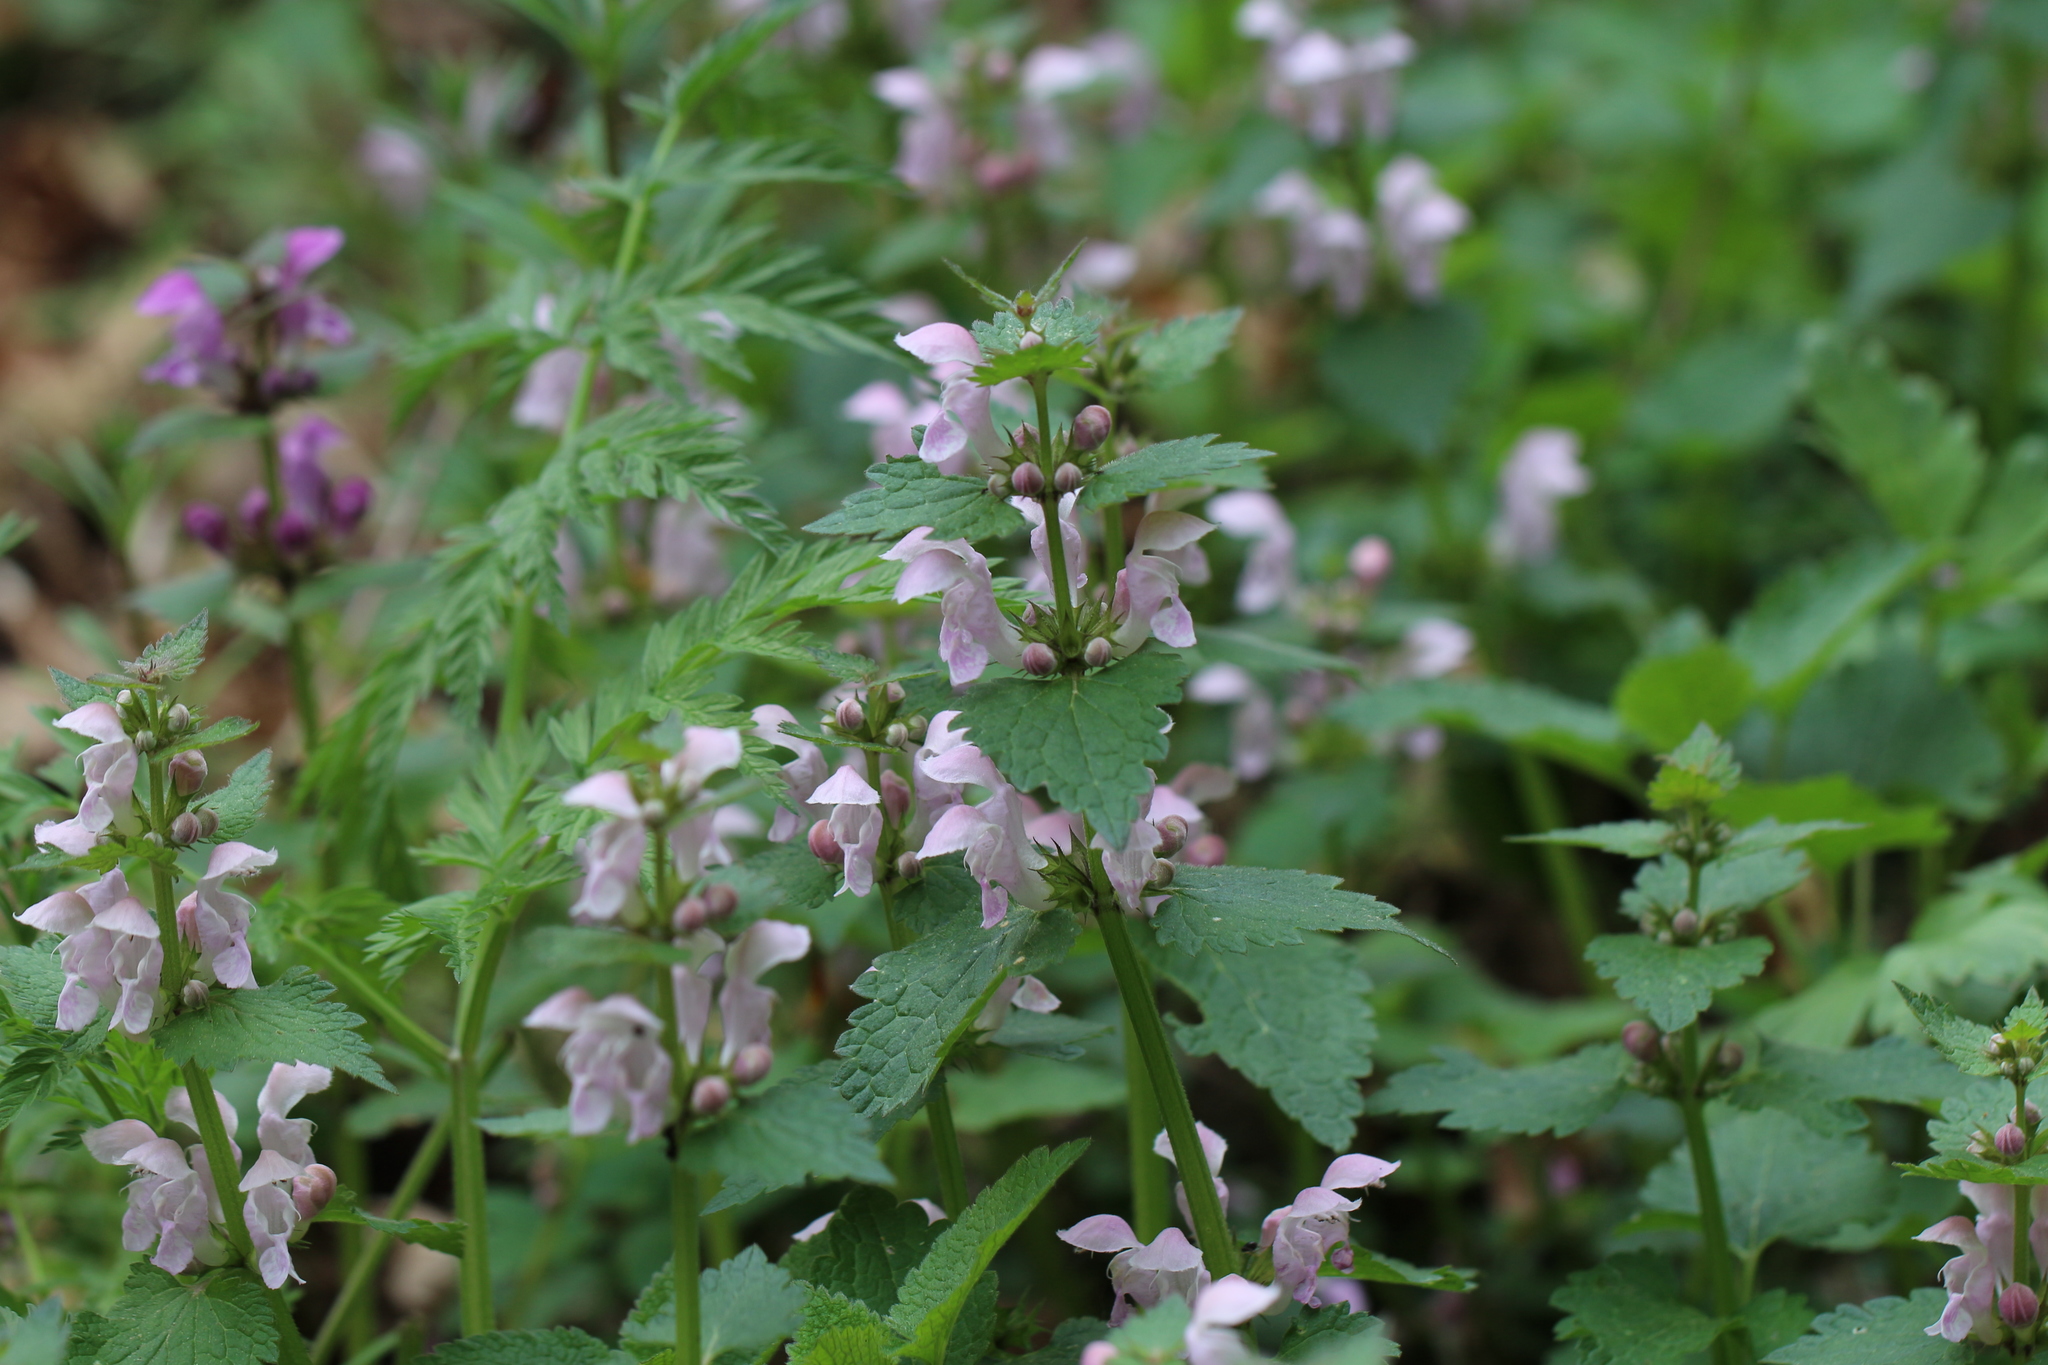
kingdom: Plantae
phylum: Tracheophyta
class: Magnoliopsida
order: Lamiales
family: Lamiaceae
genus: Lamium
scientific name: Lamium maculatum
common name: Spotted dead-nettle
